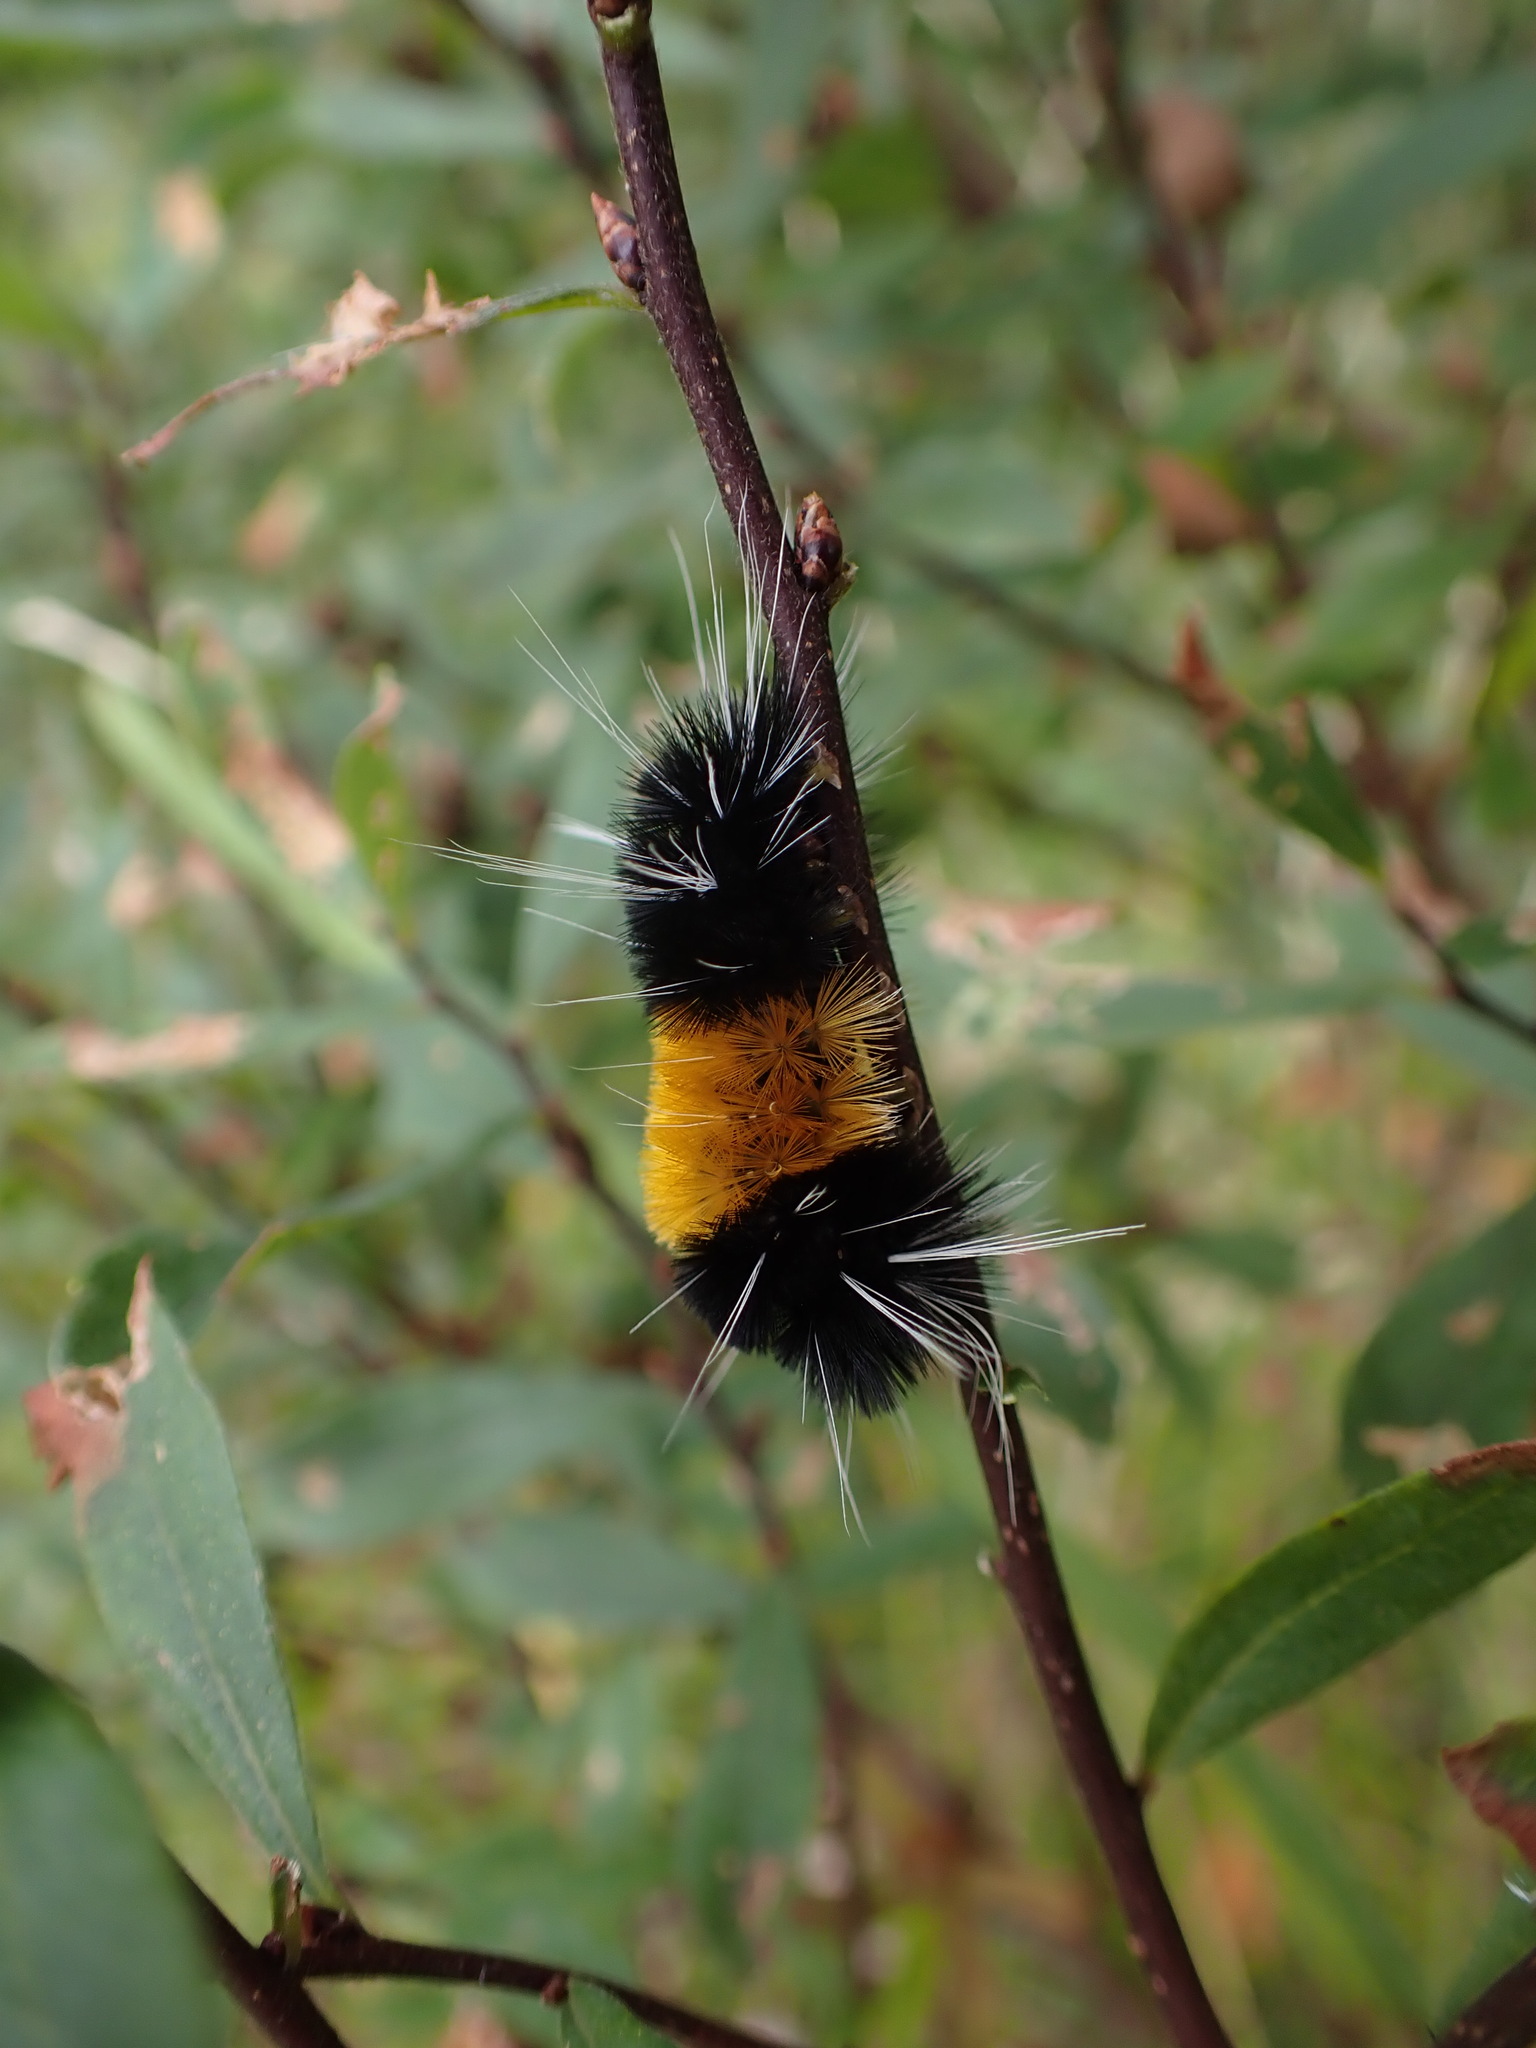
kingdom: Animalia
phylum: Arthropoda
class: Insecta
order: Lepidoptera
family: Erebidae
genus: Lophocampa
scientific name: Lophocampa maculata
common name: Spotted tussock moth
